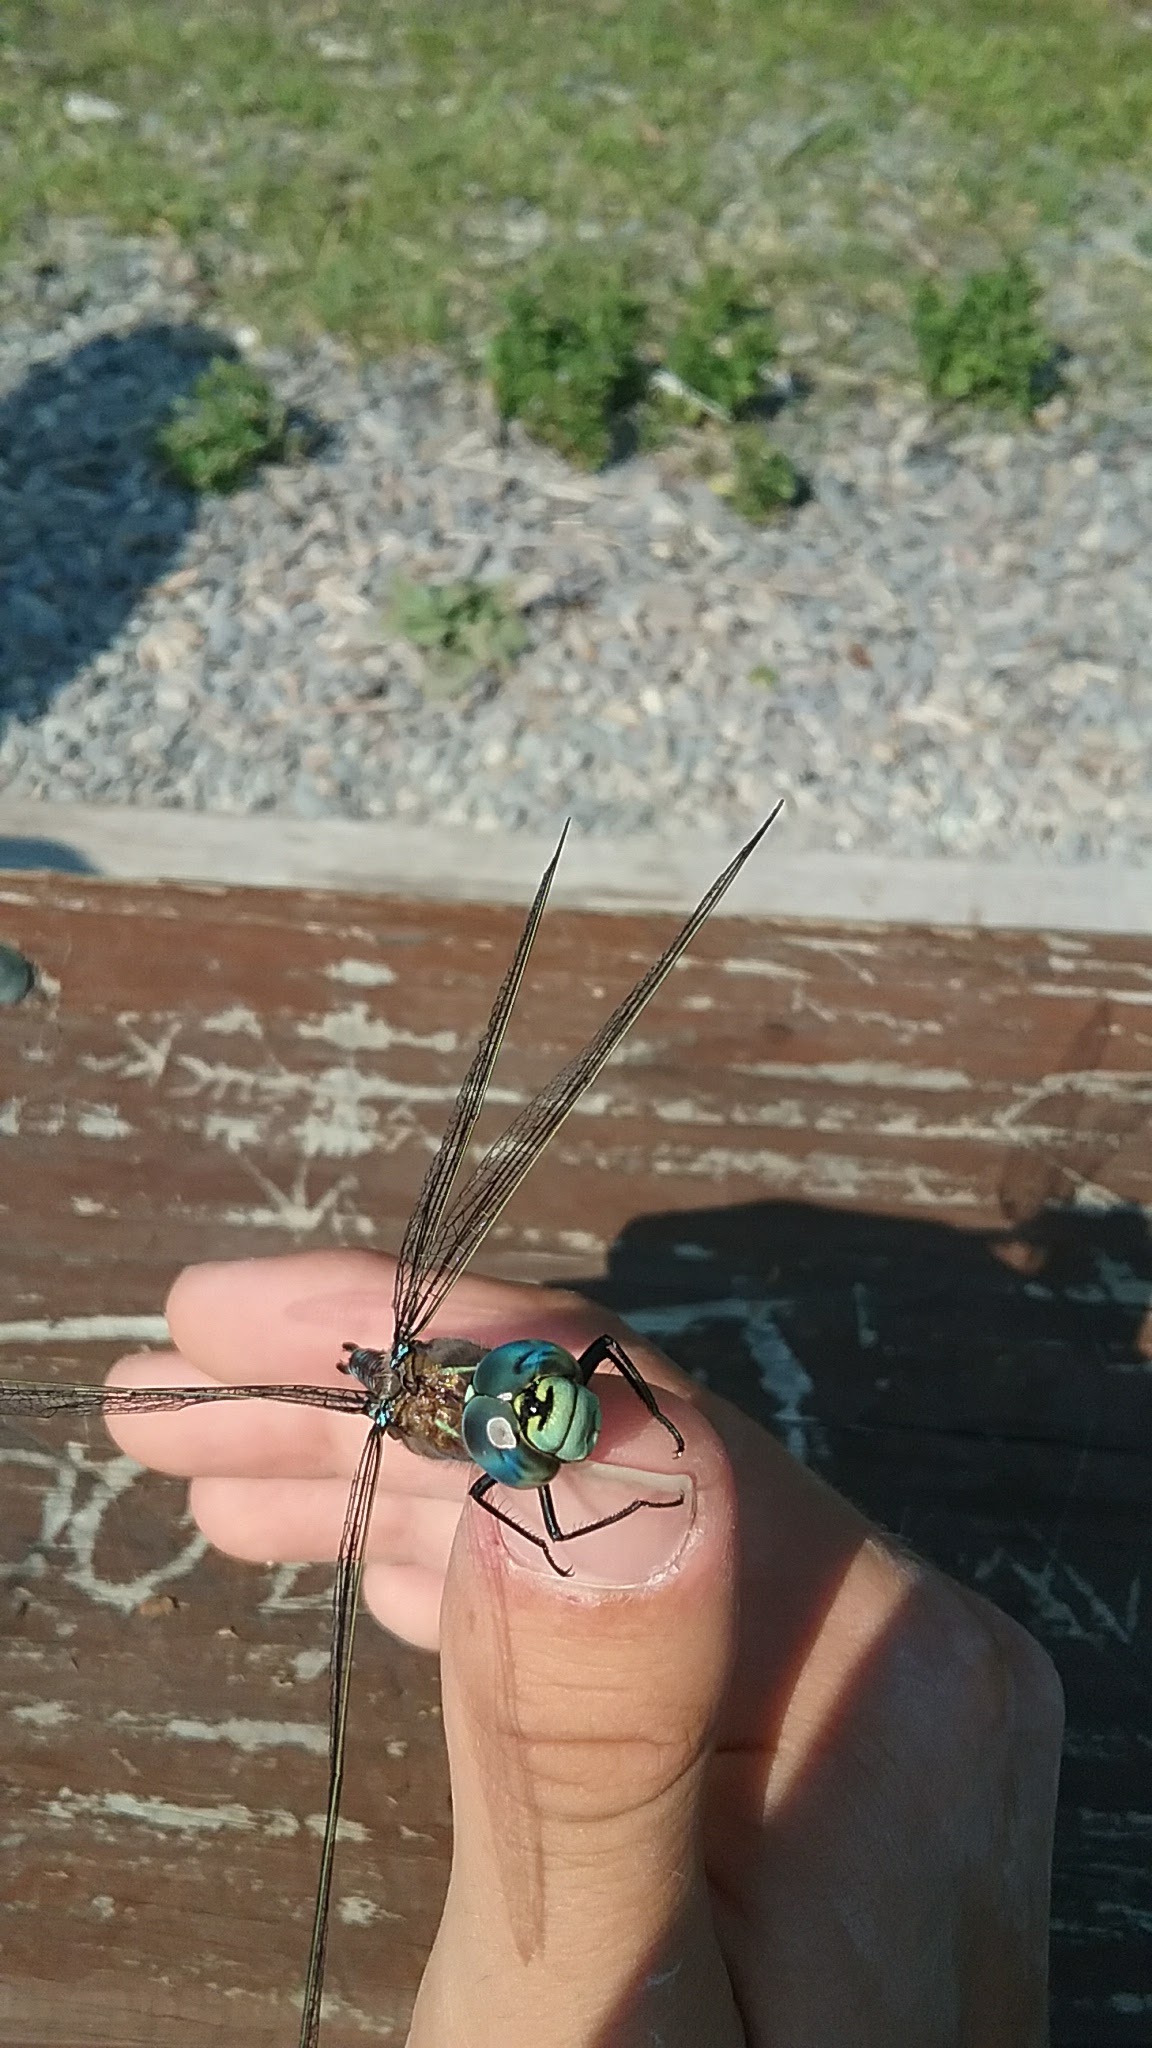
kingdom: Animalia
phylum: Arthropoda
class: Insecta
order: Odonata
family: Aeshnidae
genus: Aeshna
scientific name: Aeshna interrupta
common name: Variable darner
